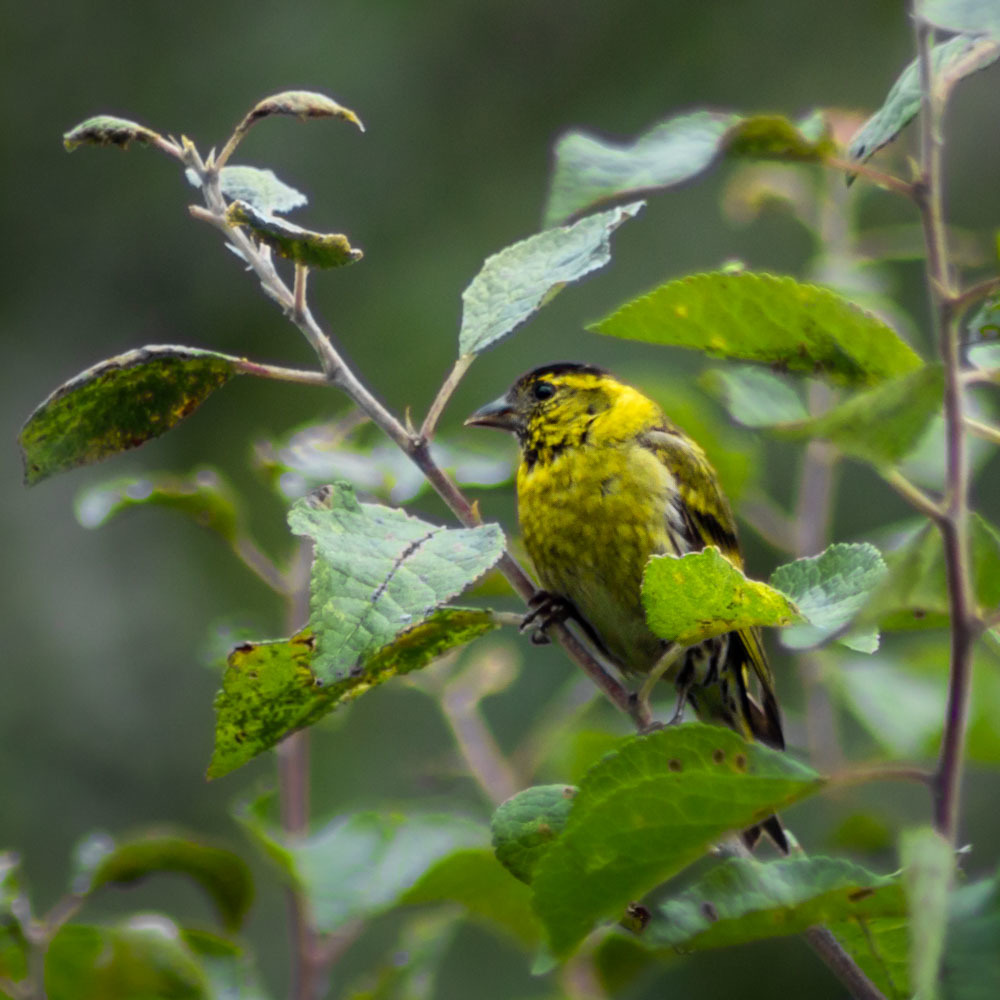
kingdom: Animalia
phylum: Chordata
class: Aves
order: Passeriformes
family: Fringillidae
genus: Spinus
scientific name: Spinus spinus
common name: Eurasian siskin
